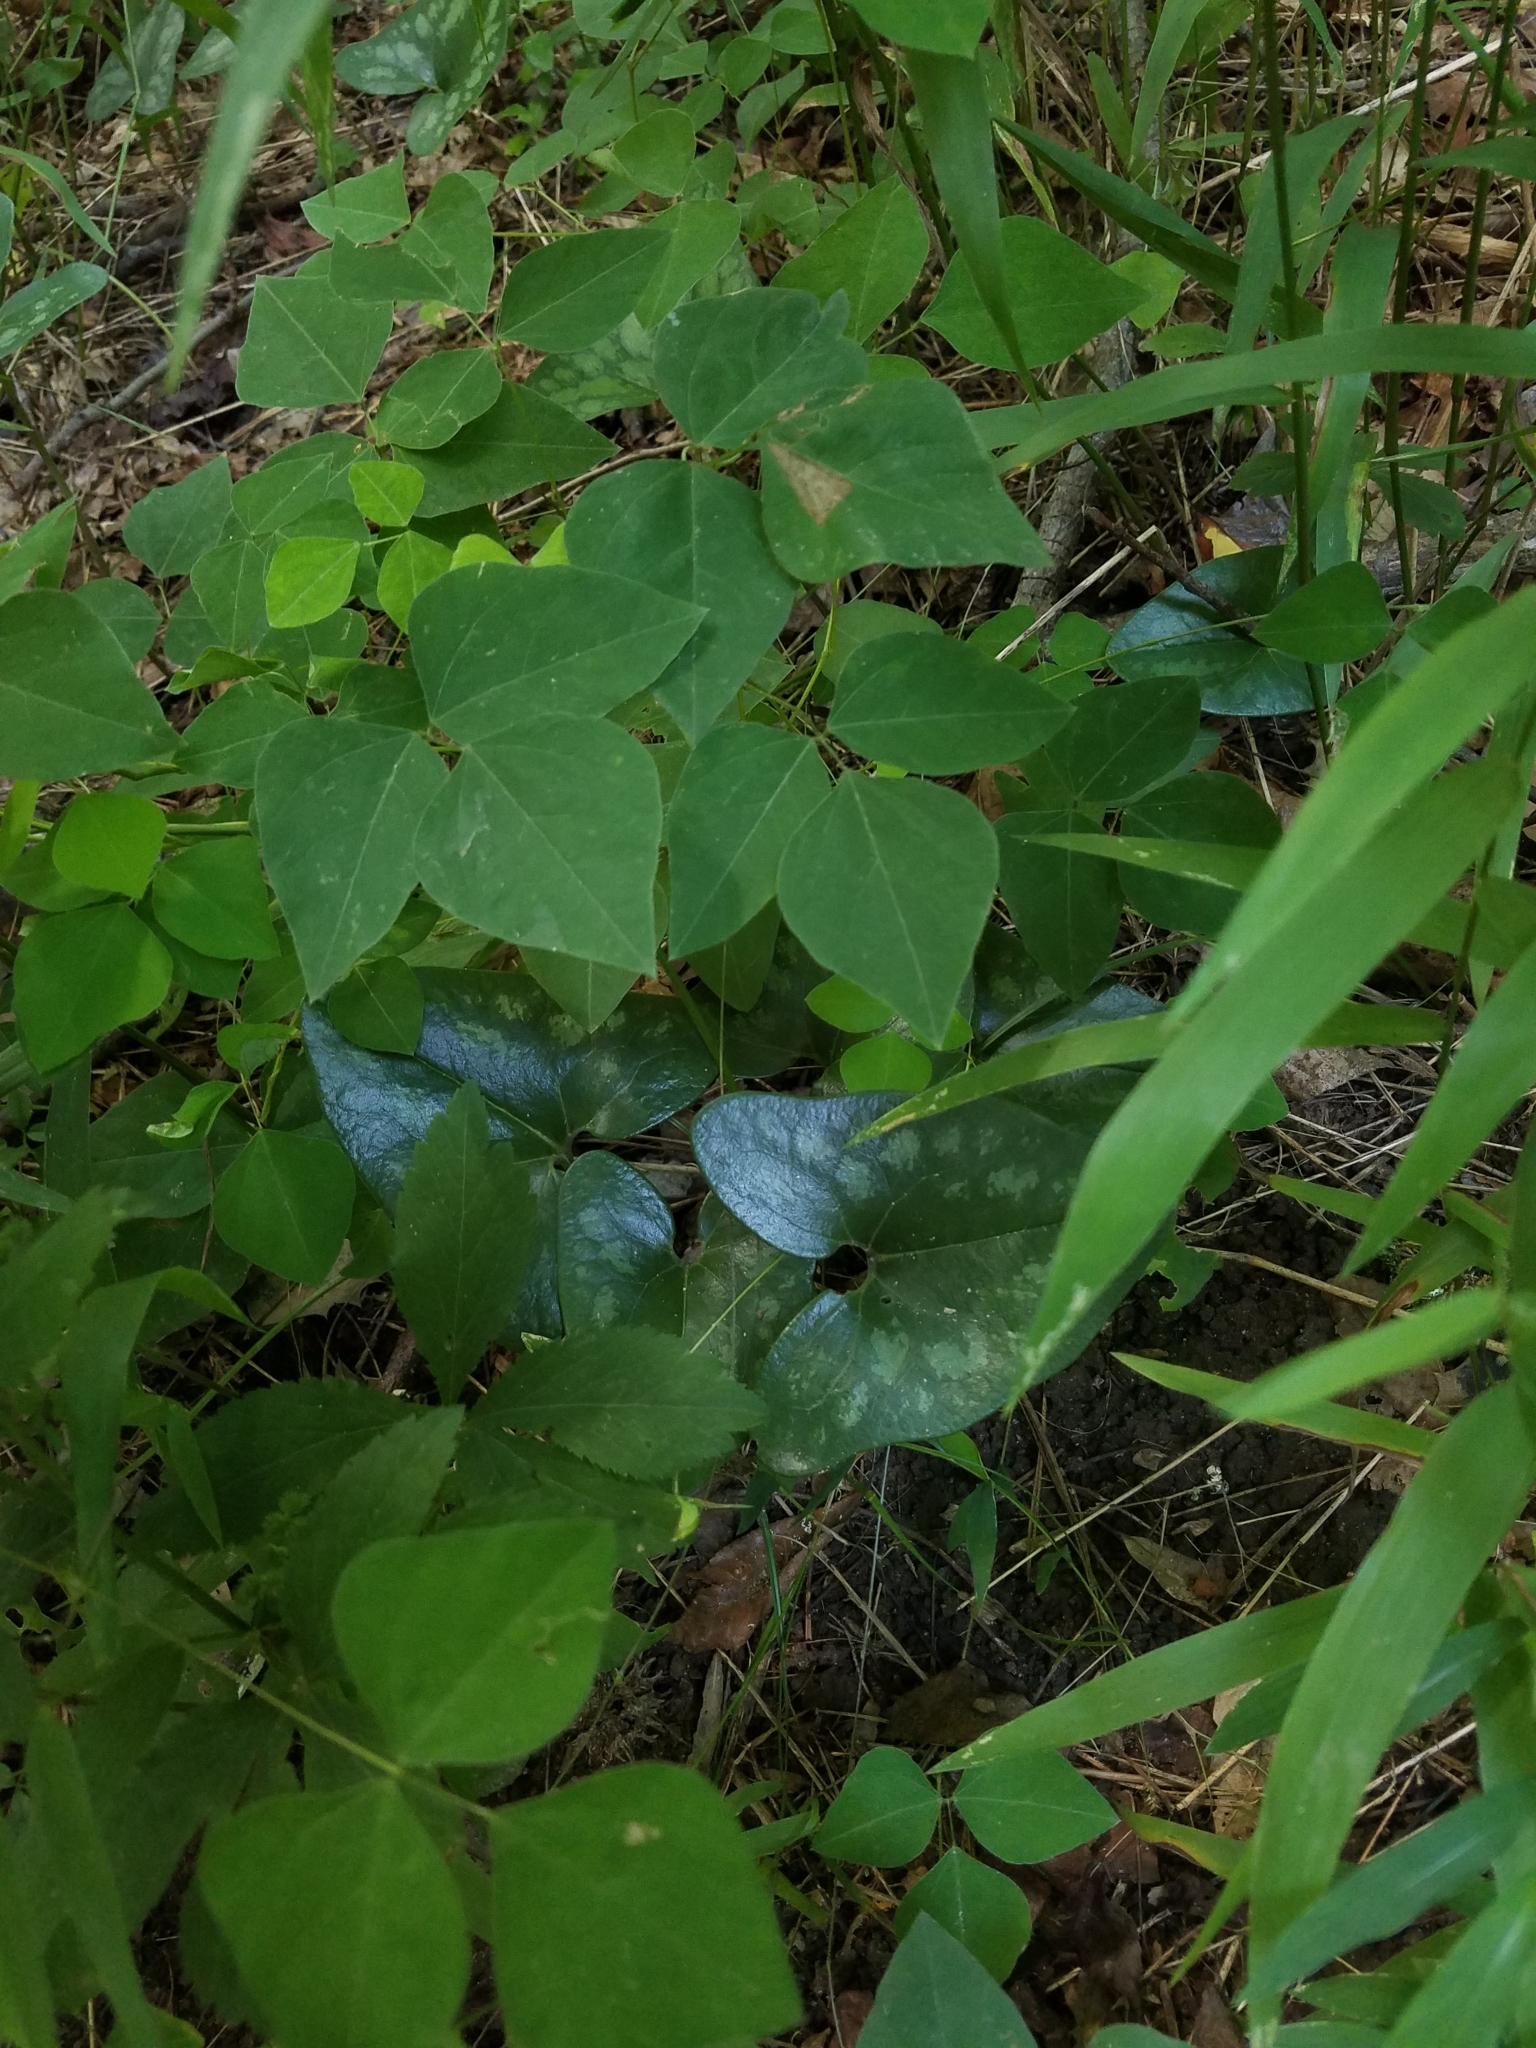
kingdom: Plantae
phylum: Tracheophyta
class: Magnoliopsida
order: Piperales
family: Aristolochiaceae
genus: Hexastylis
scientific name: Hexastylis arifolia
